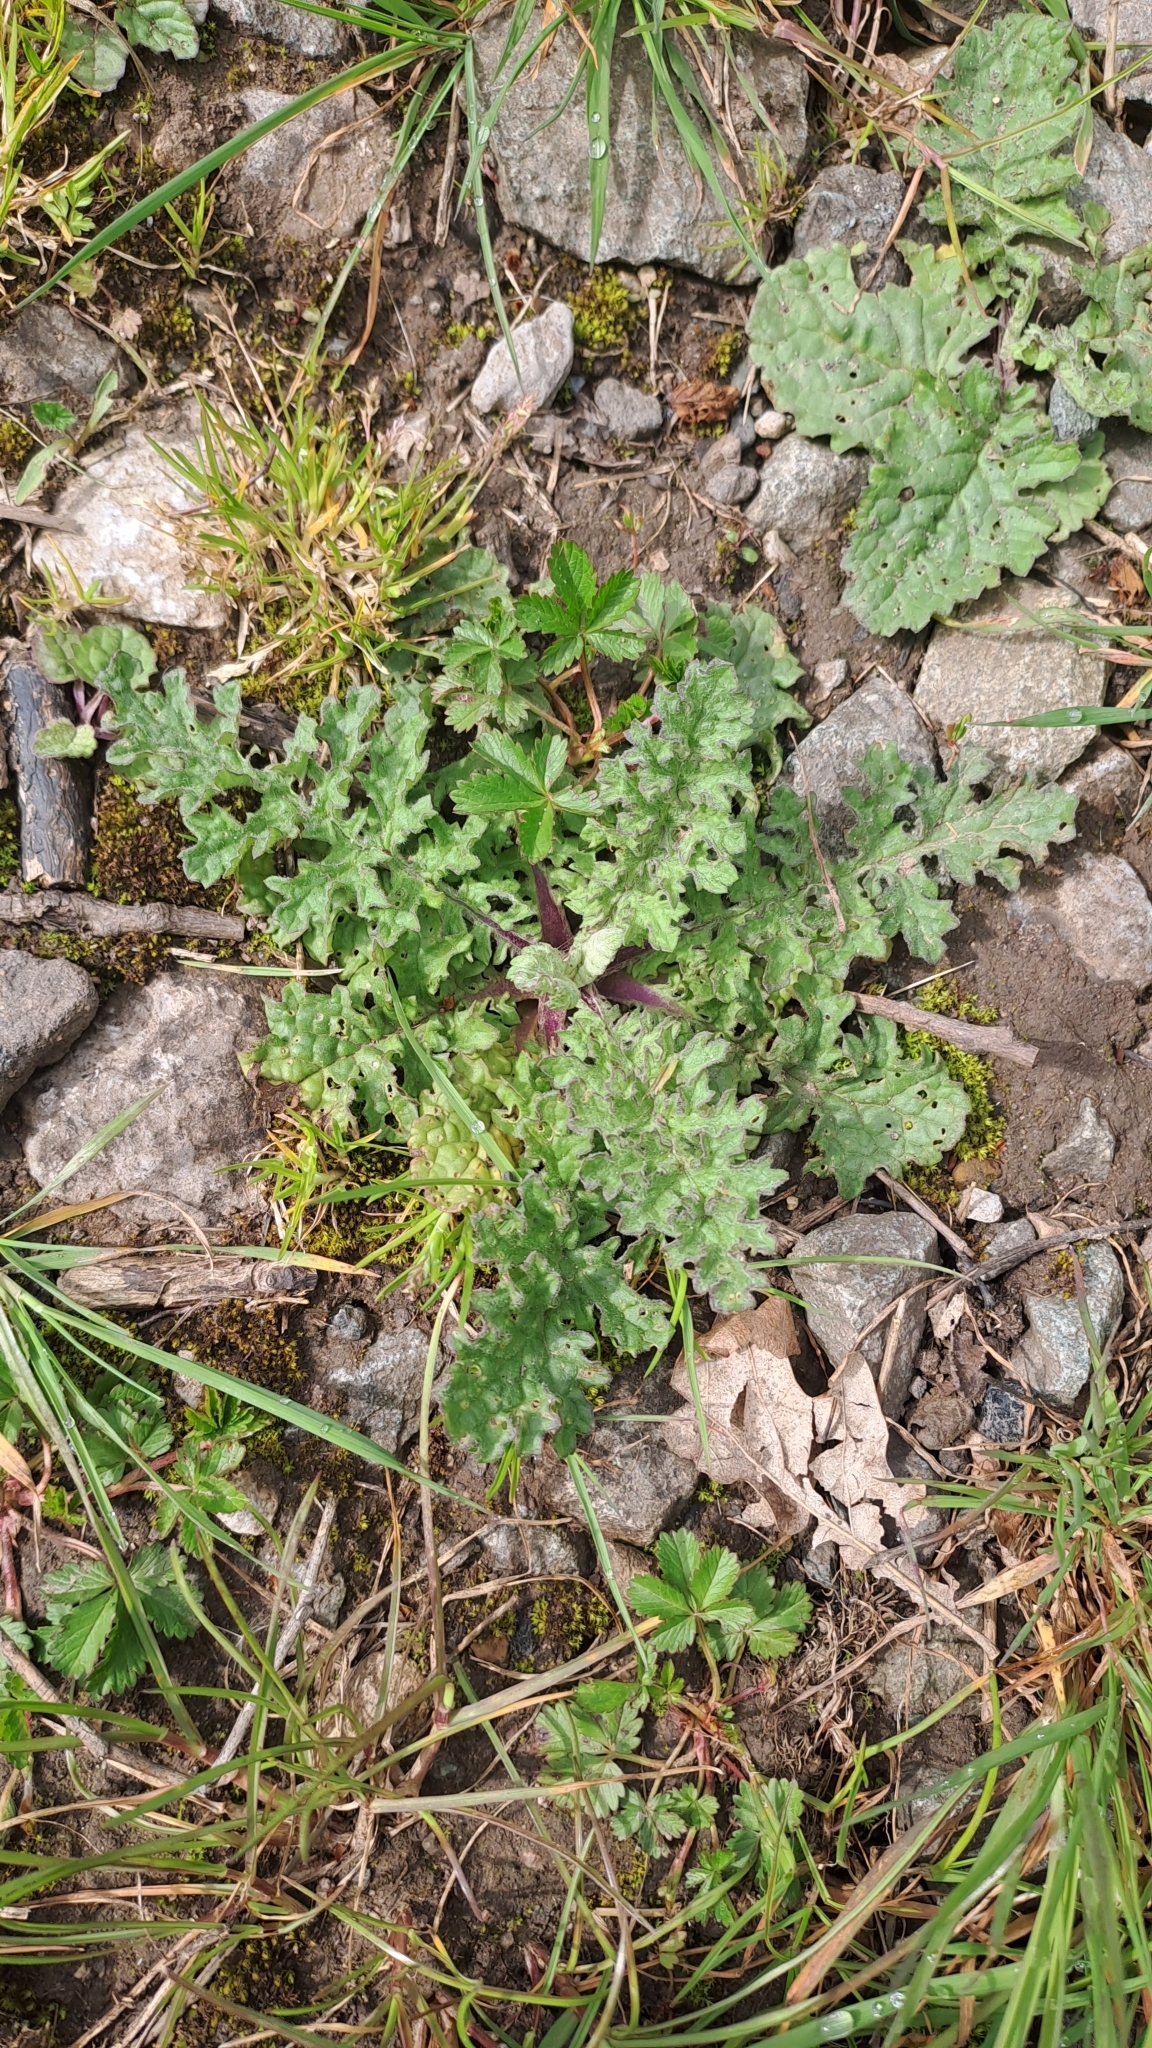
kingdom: Plantae
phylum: Tracheophyta
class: Magnoliopsida
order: Asterales
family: Asteraceae
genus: Jacobaea
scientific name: Jacobaea vulgaris
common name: Stinking willie
